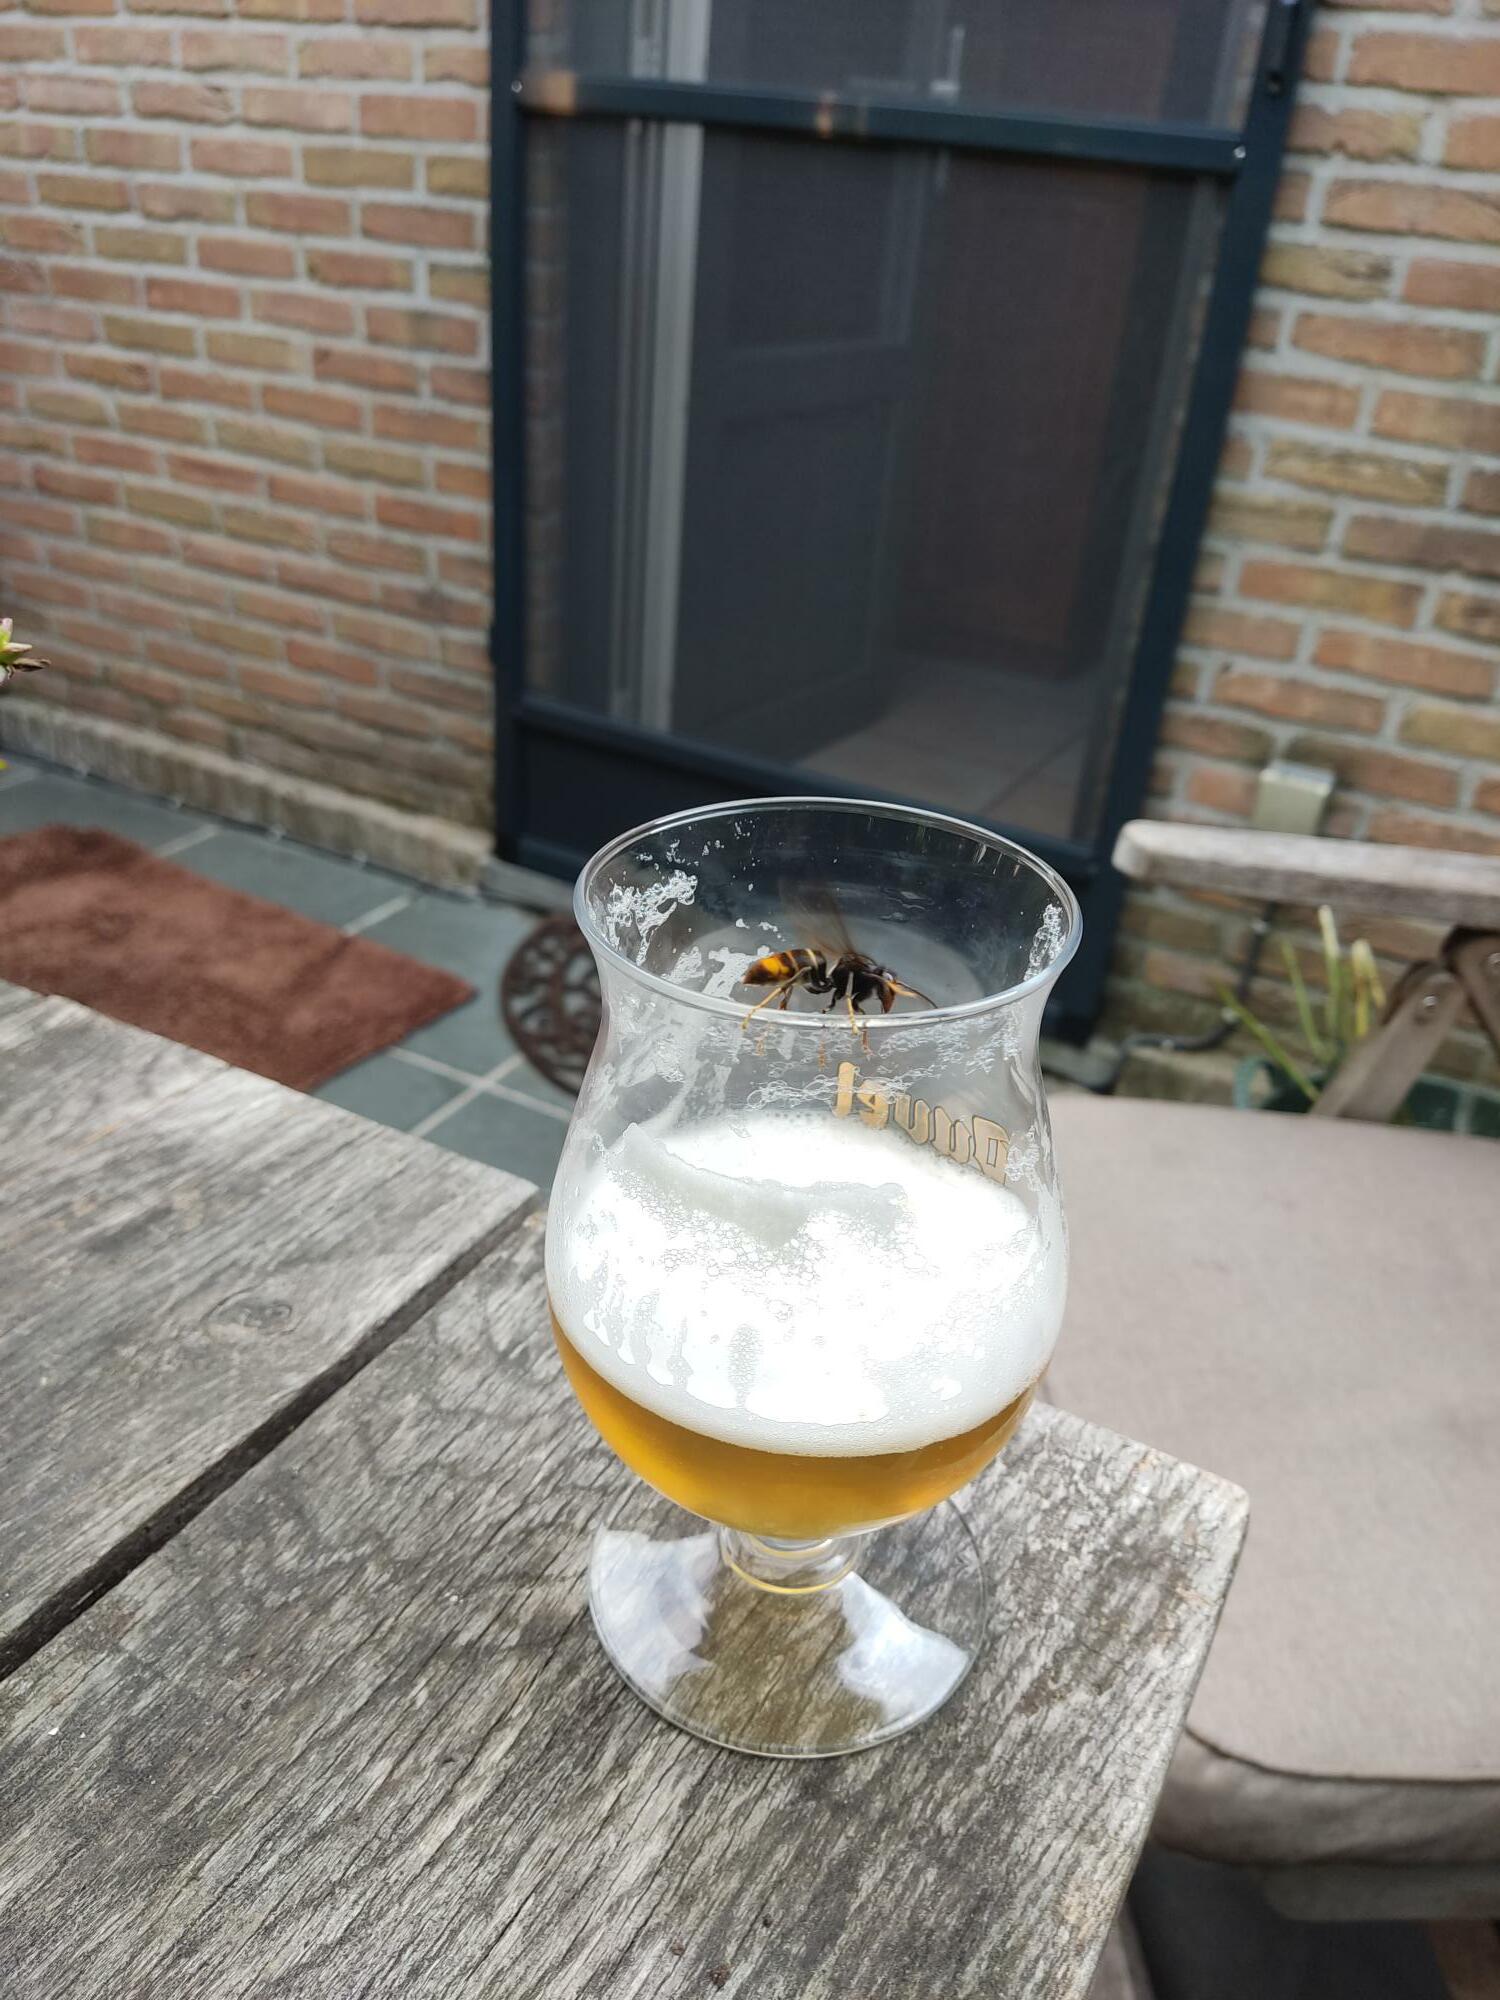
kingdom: Animalia
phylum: Arthropoda
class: Insecta
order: Hymenoptera
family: Vespidae
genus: Vespa
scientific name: Vespa velutina
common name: Asian hornet
